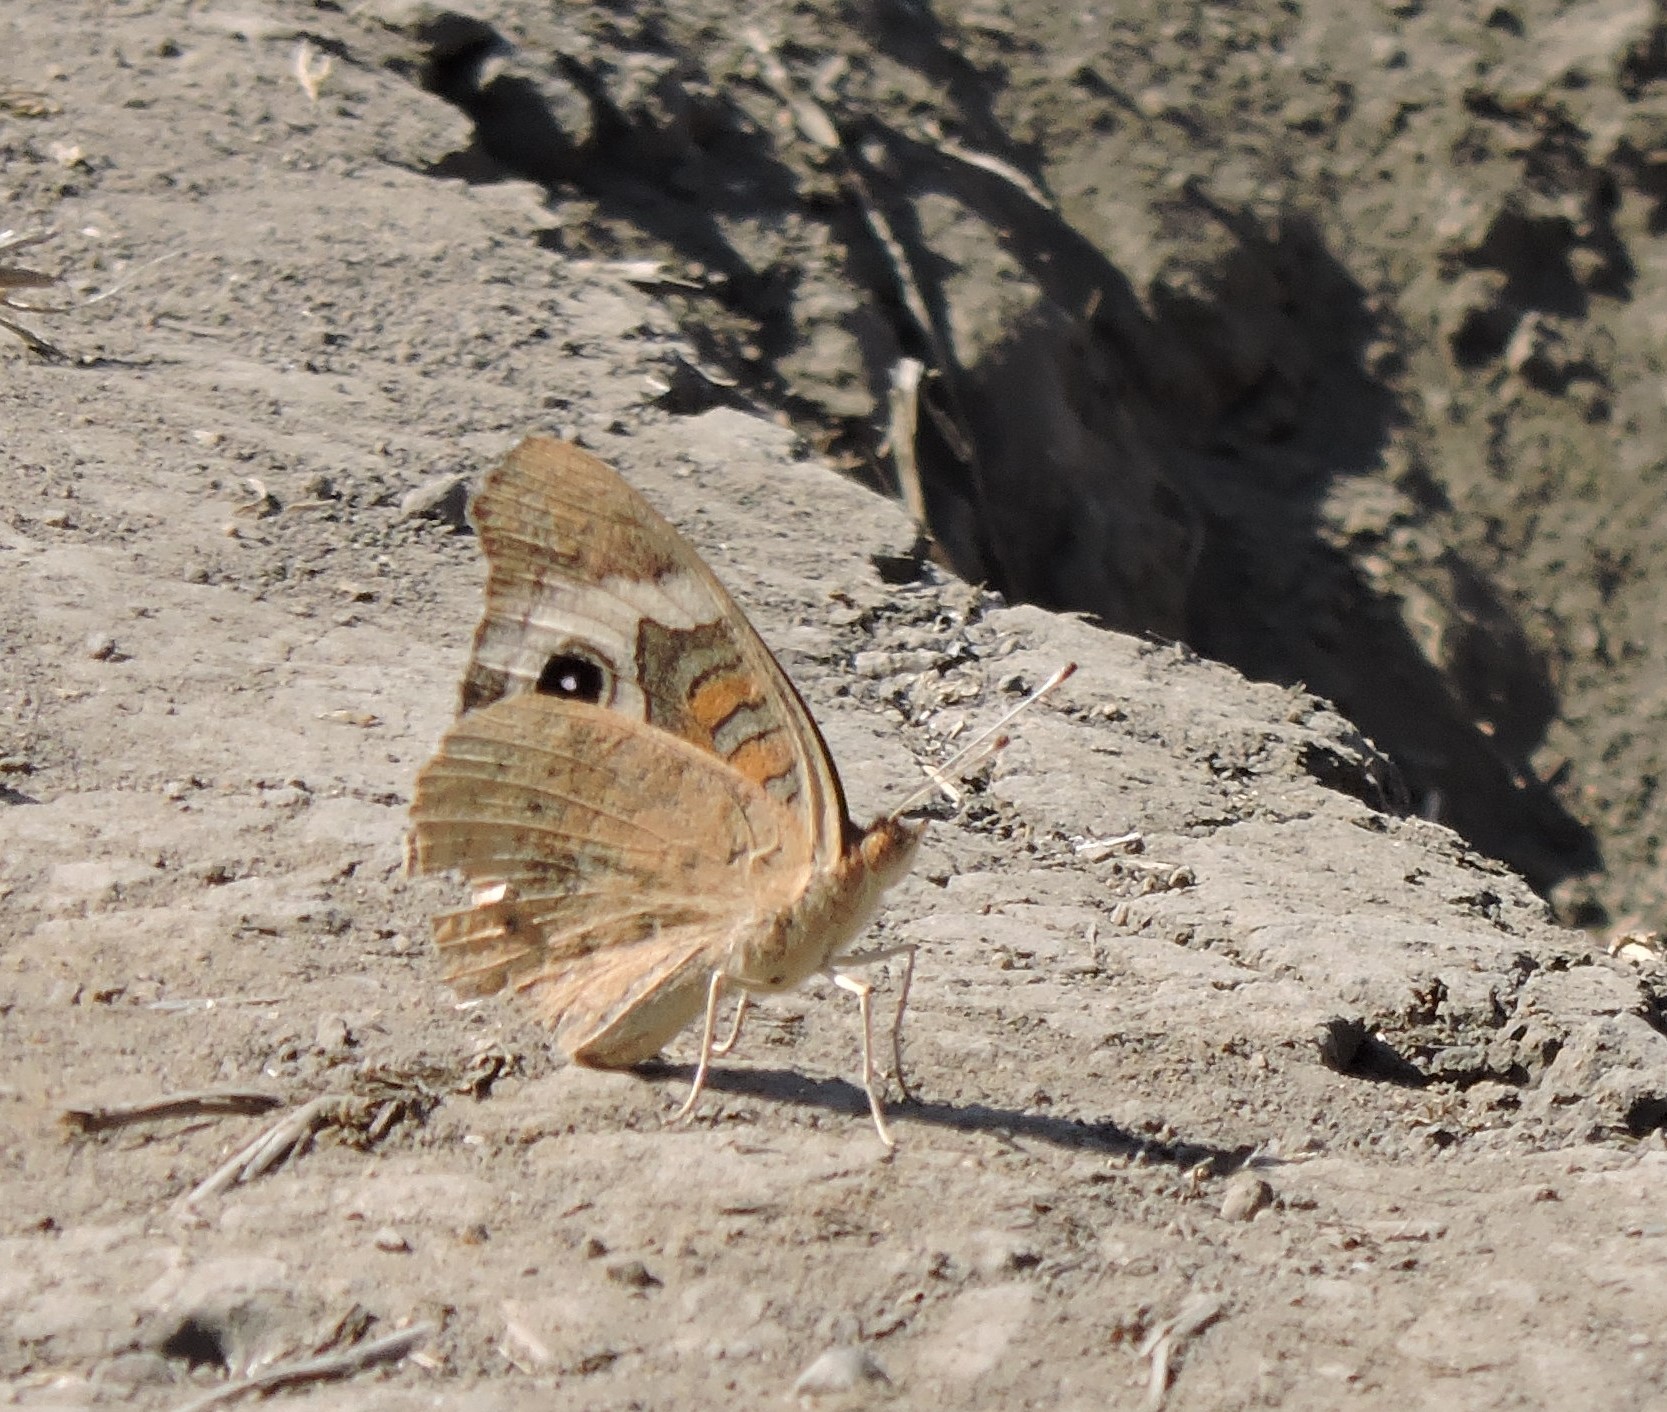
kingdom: Animalia
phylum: Arthropoda
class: Insecta
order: Lepidoptera
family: Nymphalidae
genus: Junonia
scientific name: Junonia grisea
